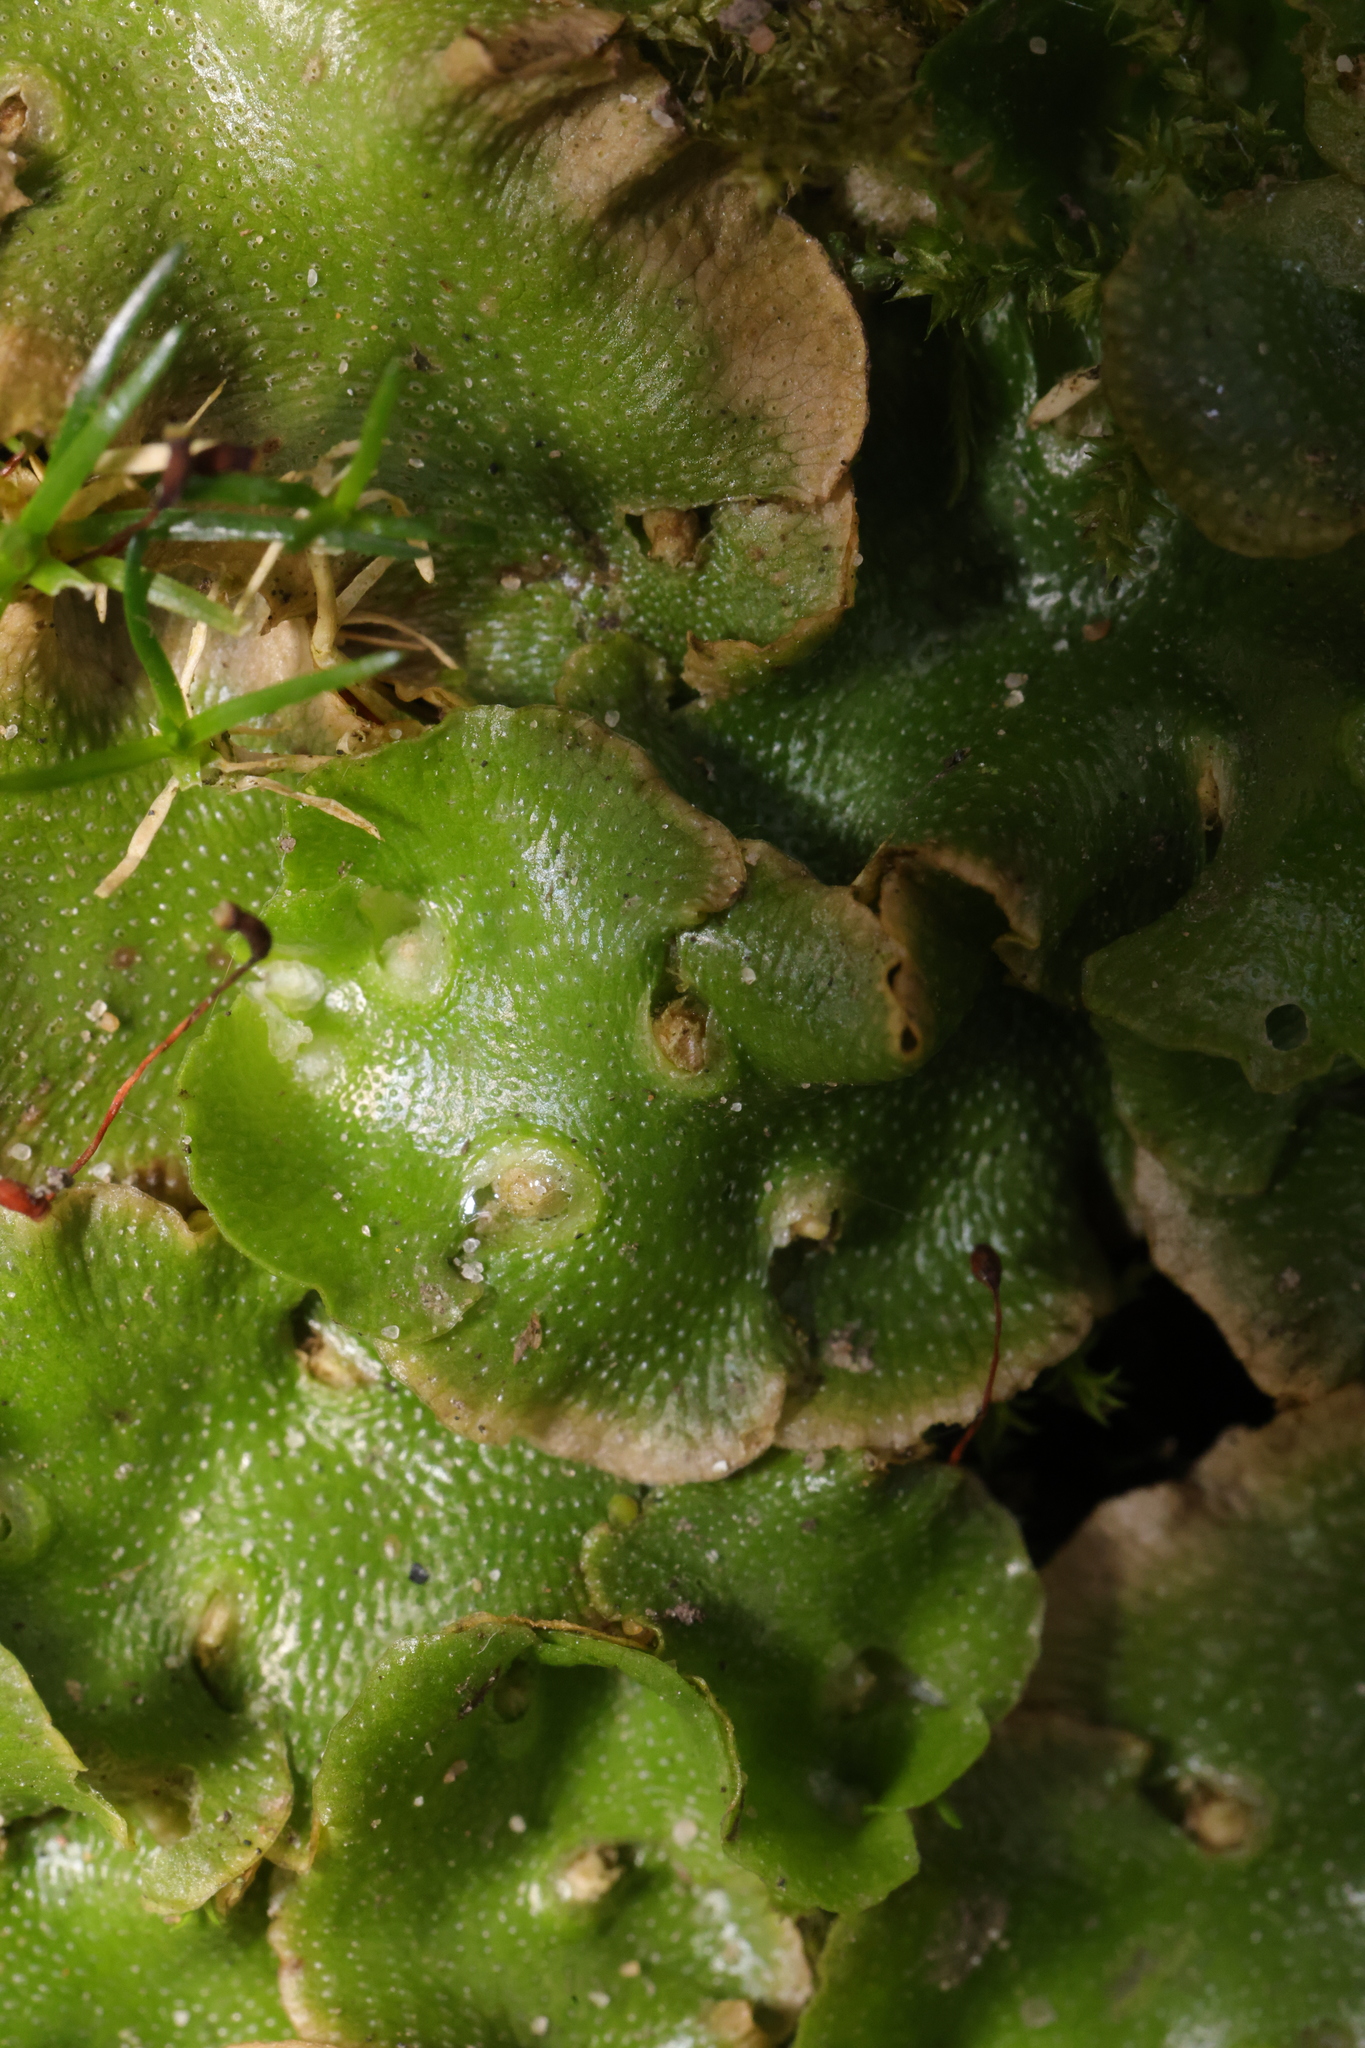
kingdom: Plantae
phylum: Marchantiophyta
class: Marchantiopsida
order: Lunulariales
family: Lunulariaceae
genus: Lunularia
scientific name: Lunularia cruciata
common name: Crescent-cup liverwort
